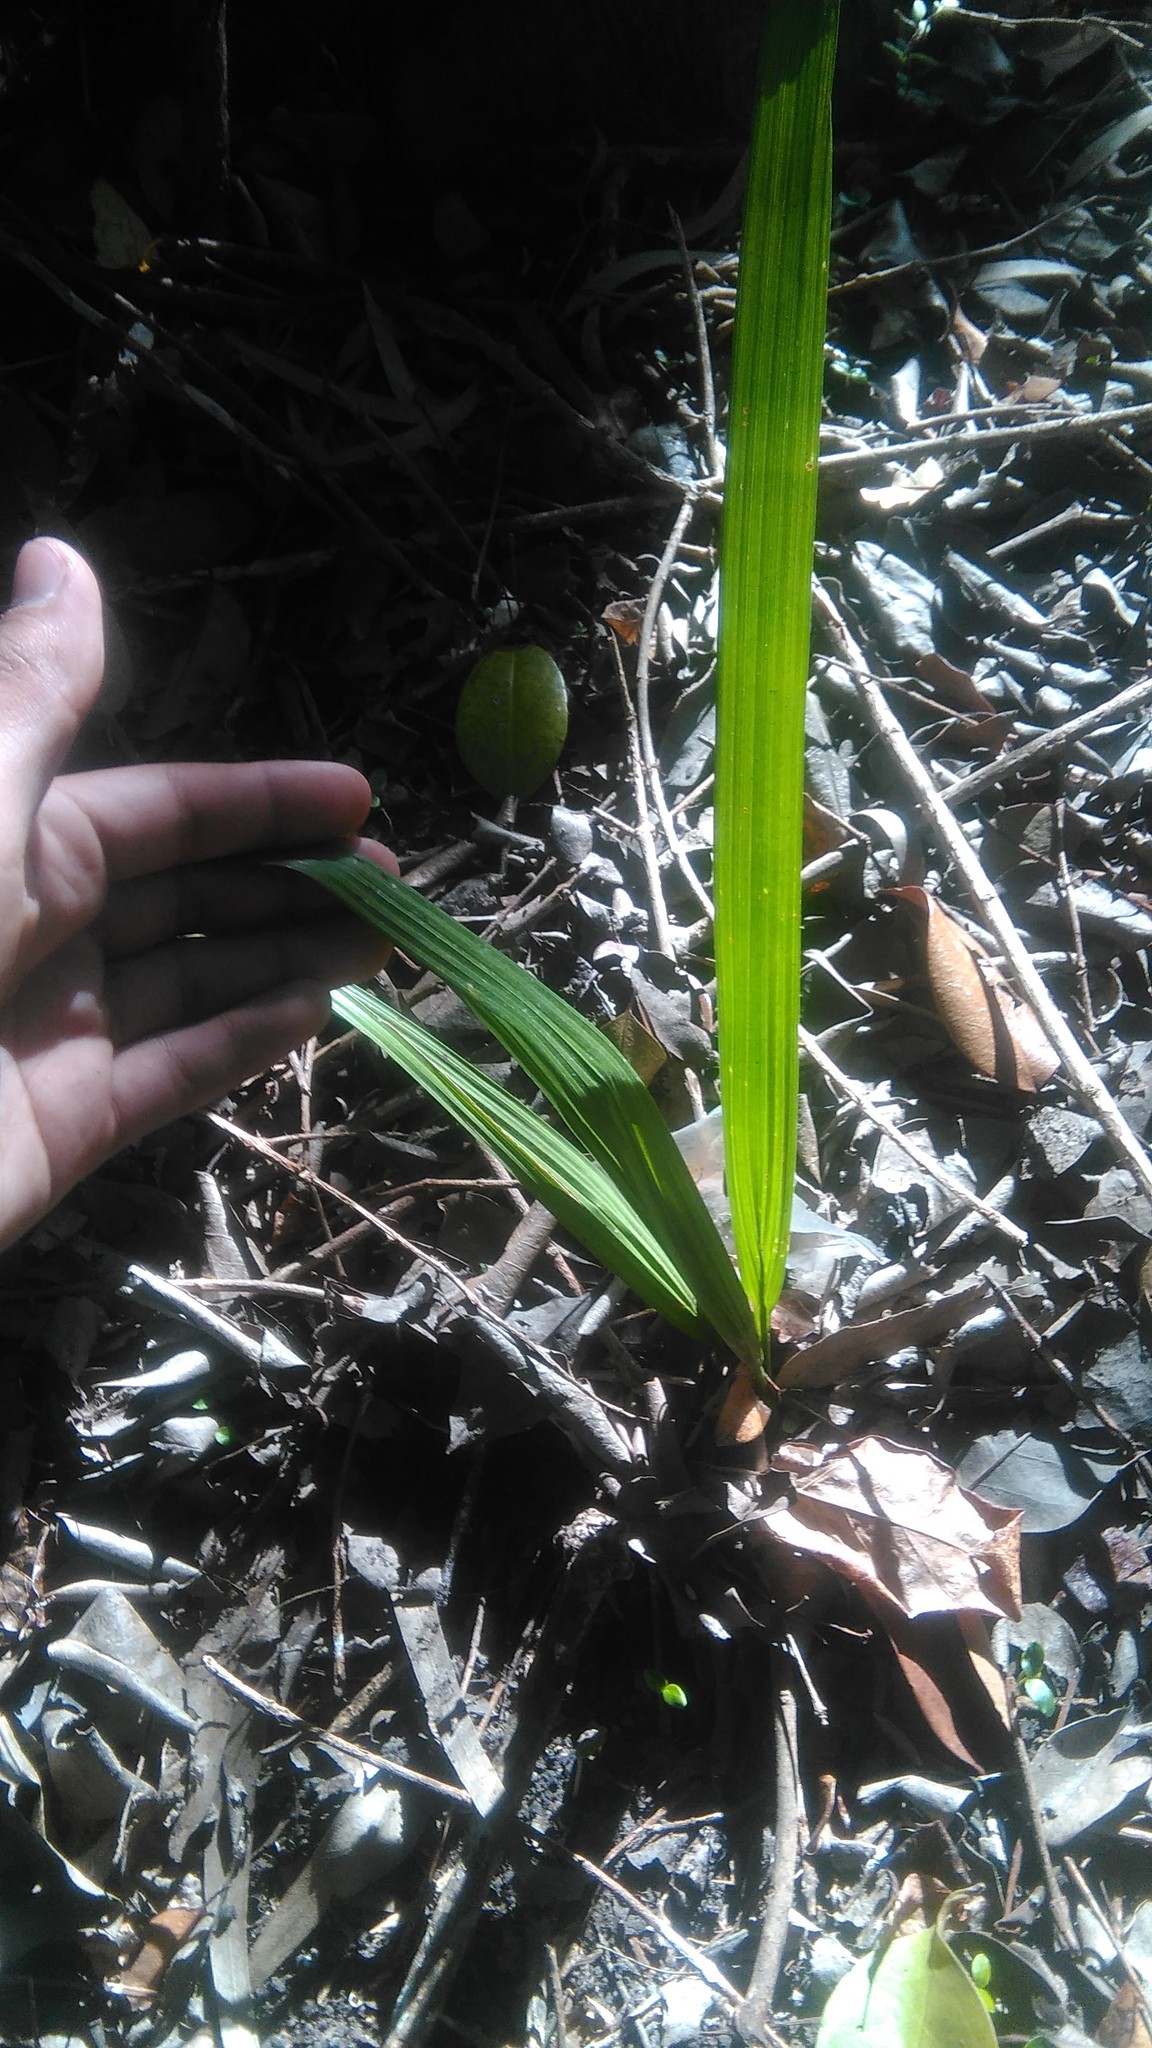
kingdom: Plantae
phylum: Tracheophyta
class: Liliopsida
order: Arecales
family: Arecaceae
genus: Phoenix
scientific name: Phoenix canariensis
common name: Canary island date palm
